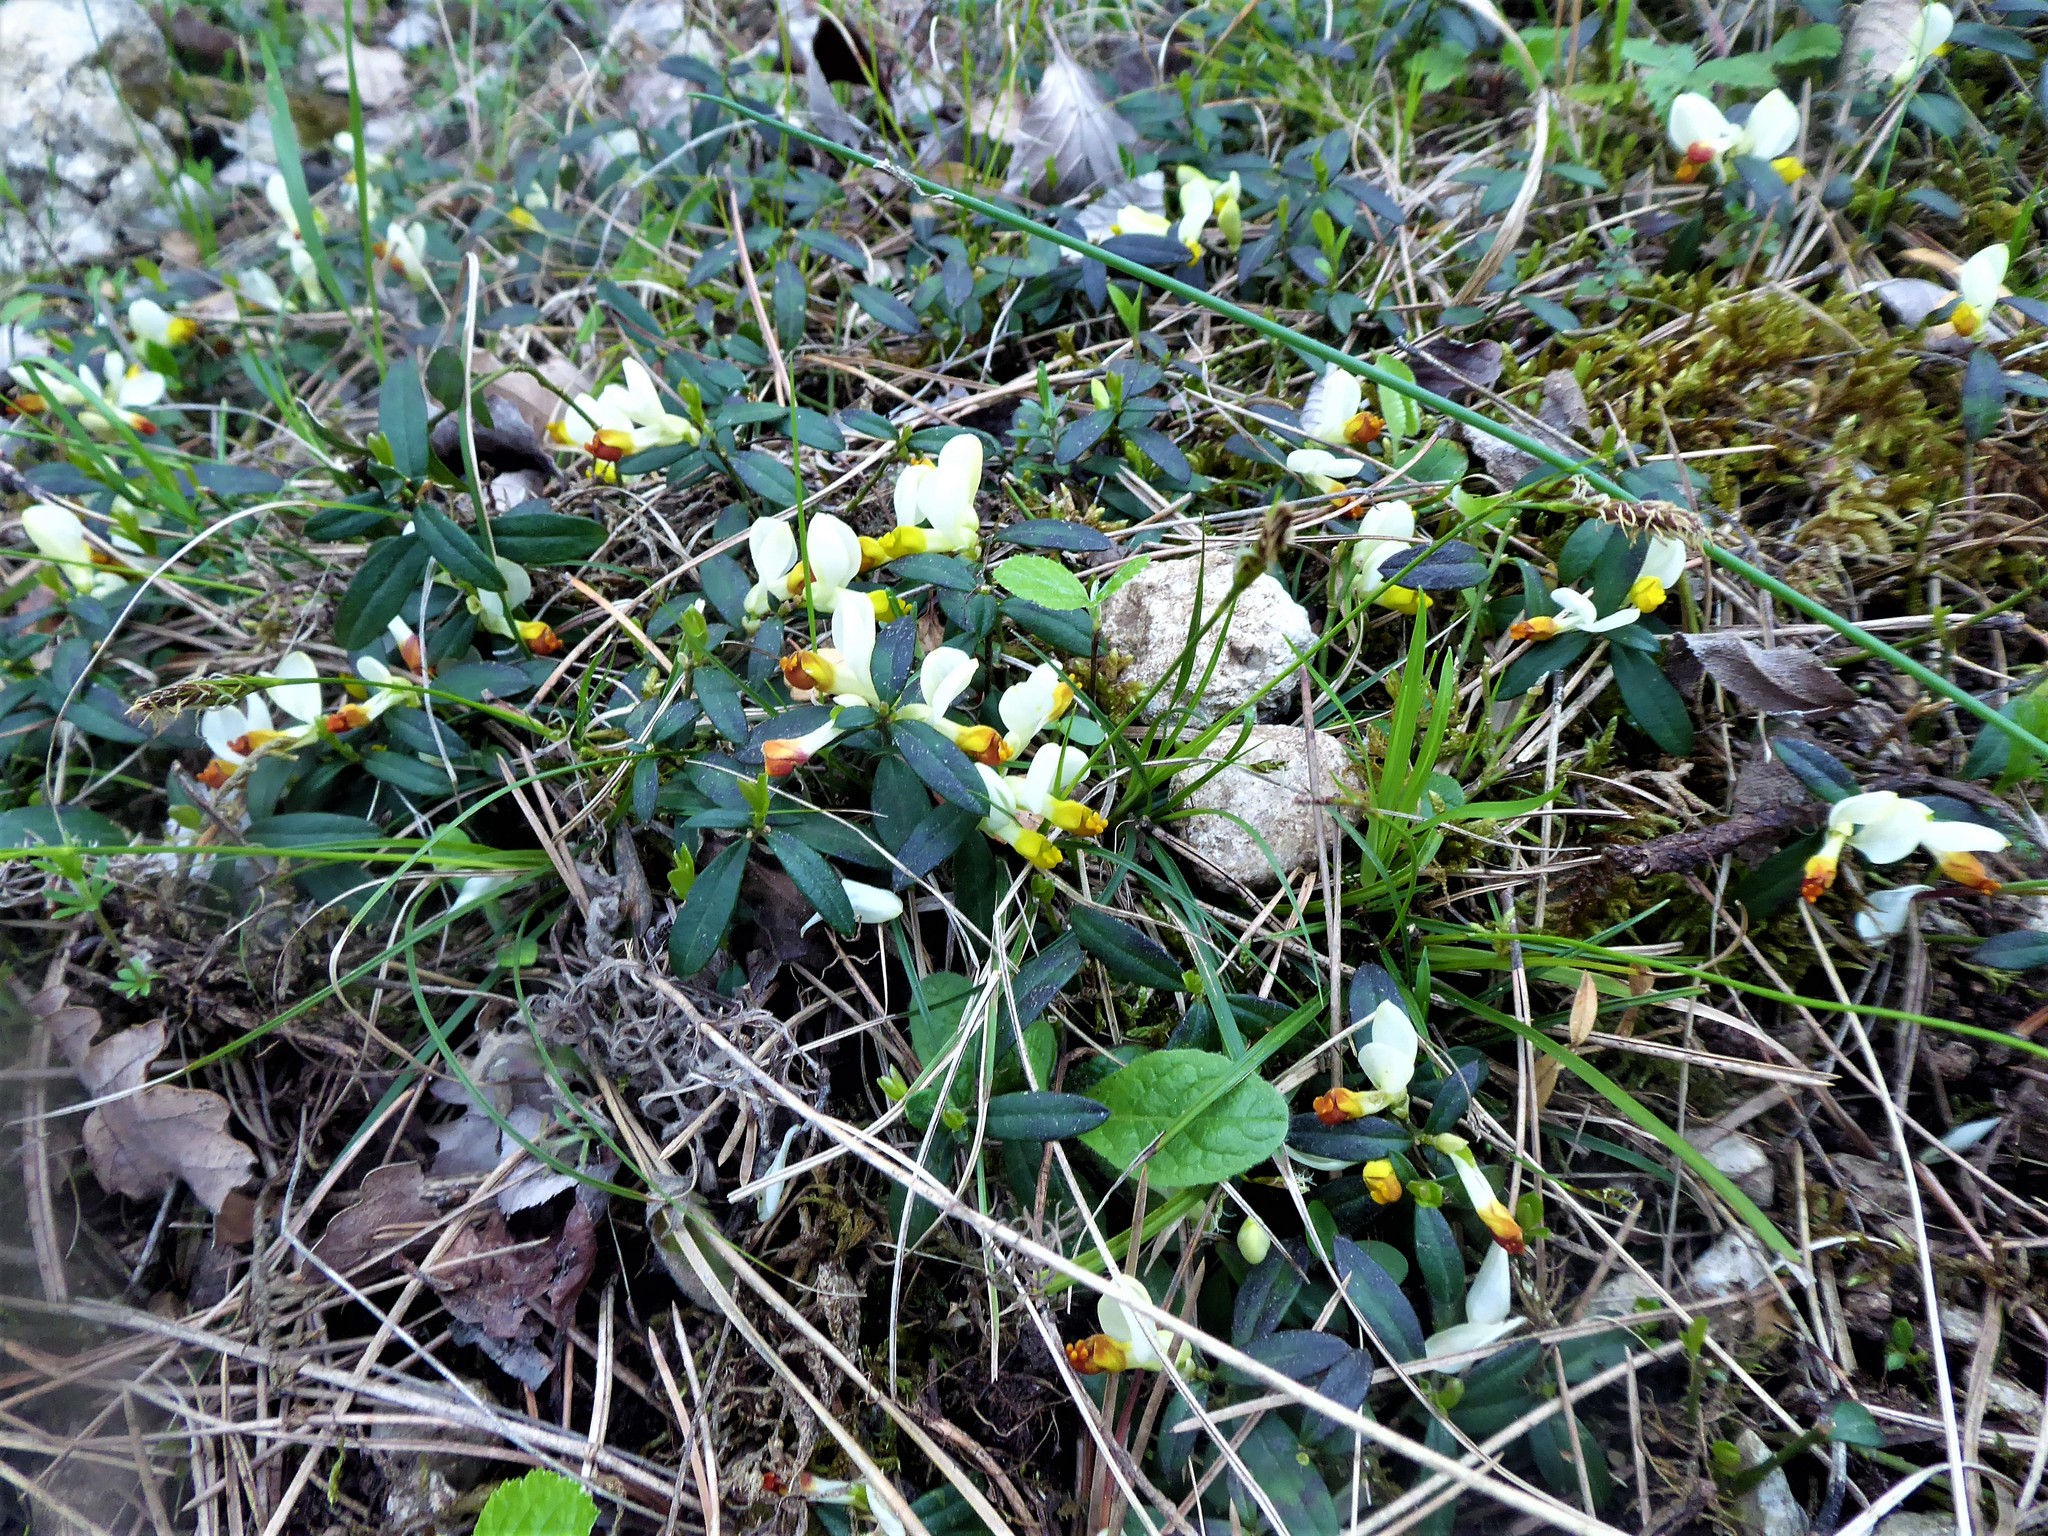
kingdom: Plantae
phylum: Tracheophyta
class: Magnoliopsida
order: Fabales
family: Polygalaceae
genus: Polygaloides
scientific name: Polygaloides chamaebuxus
